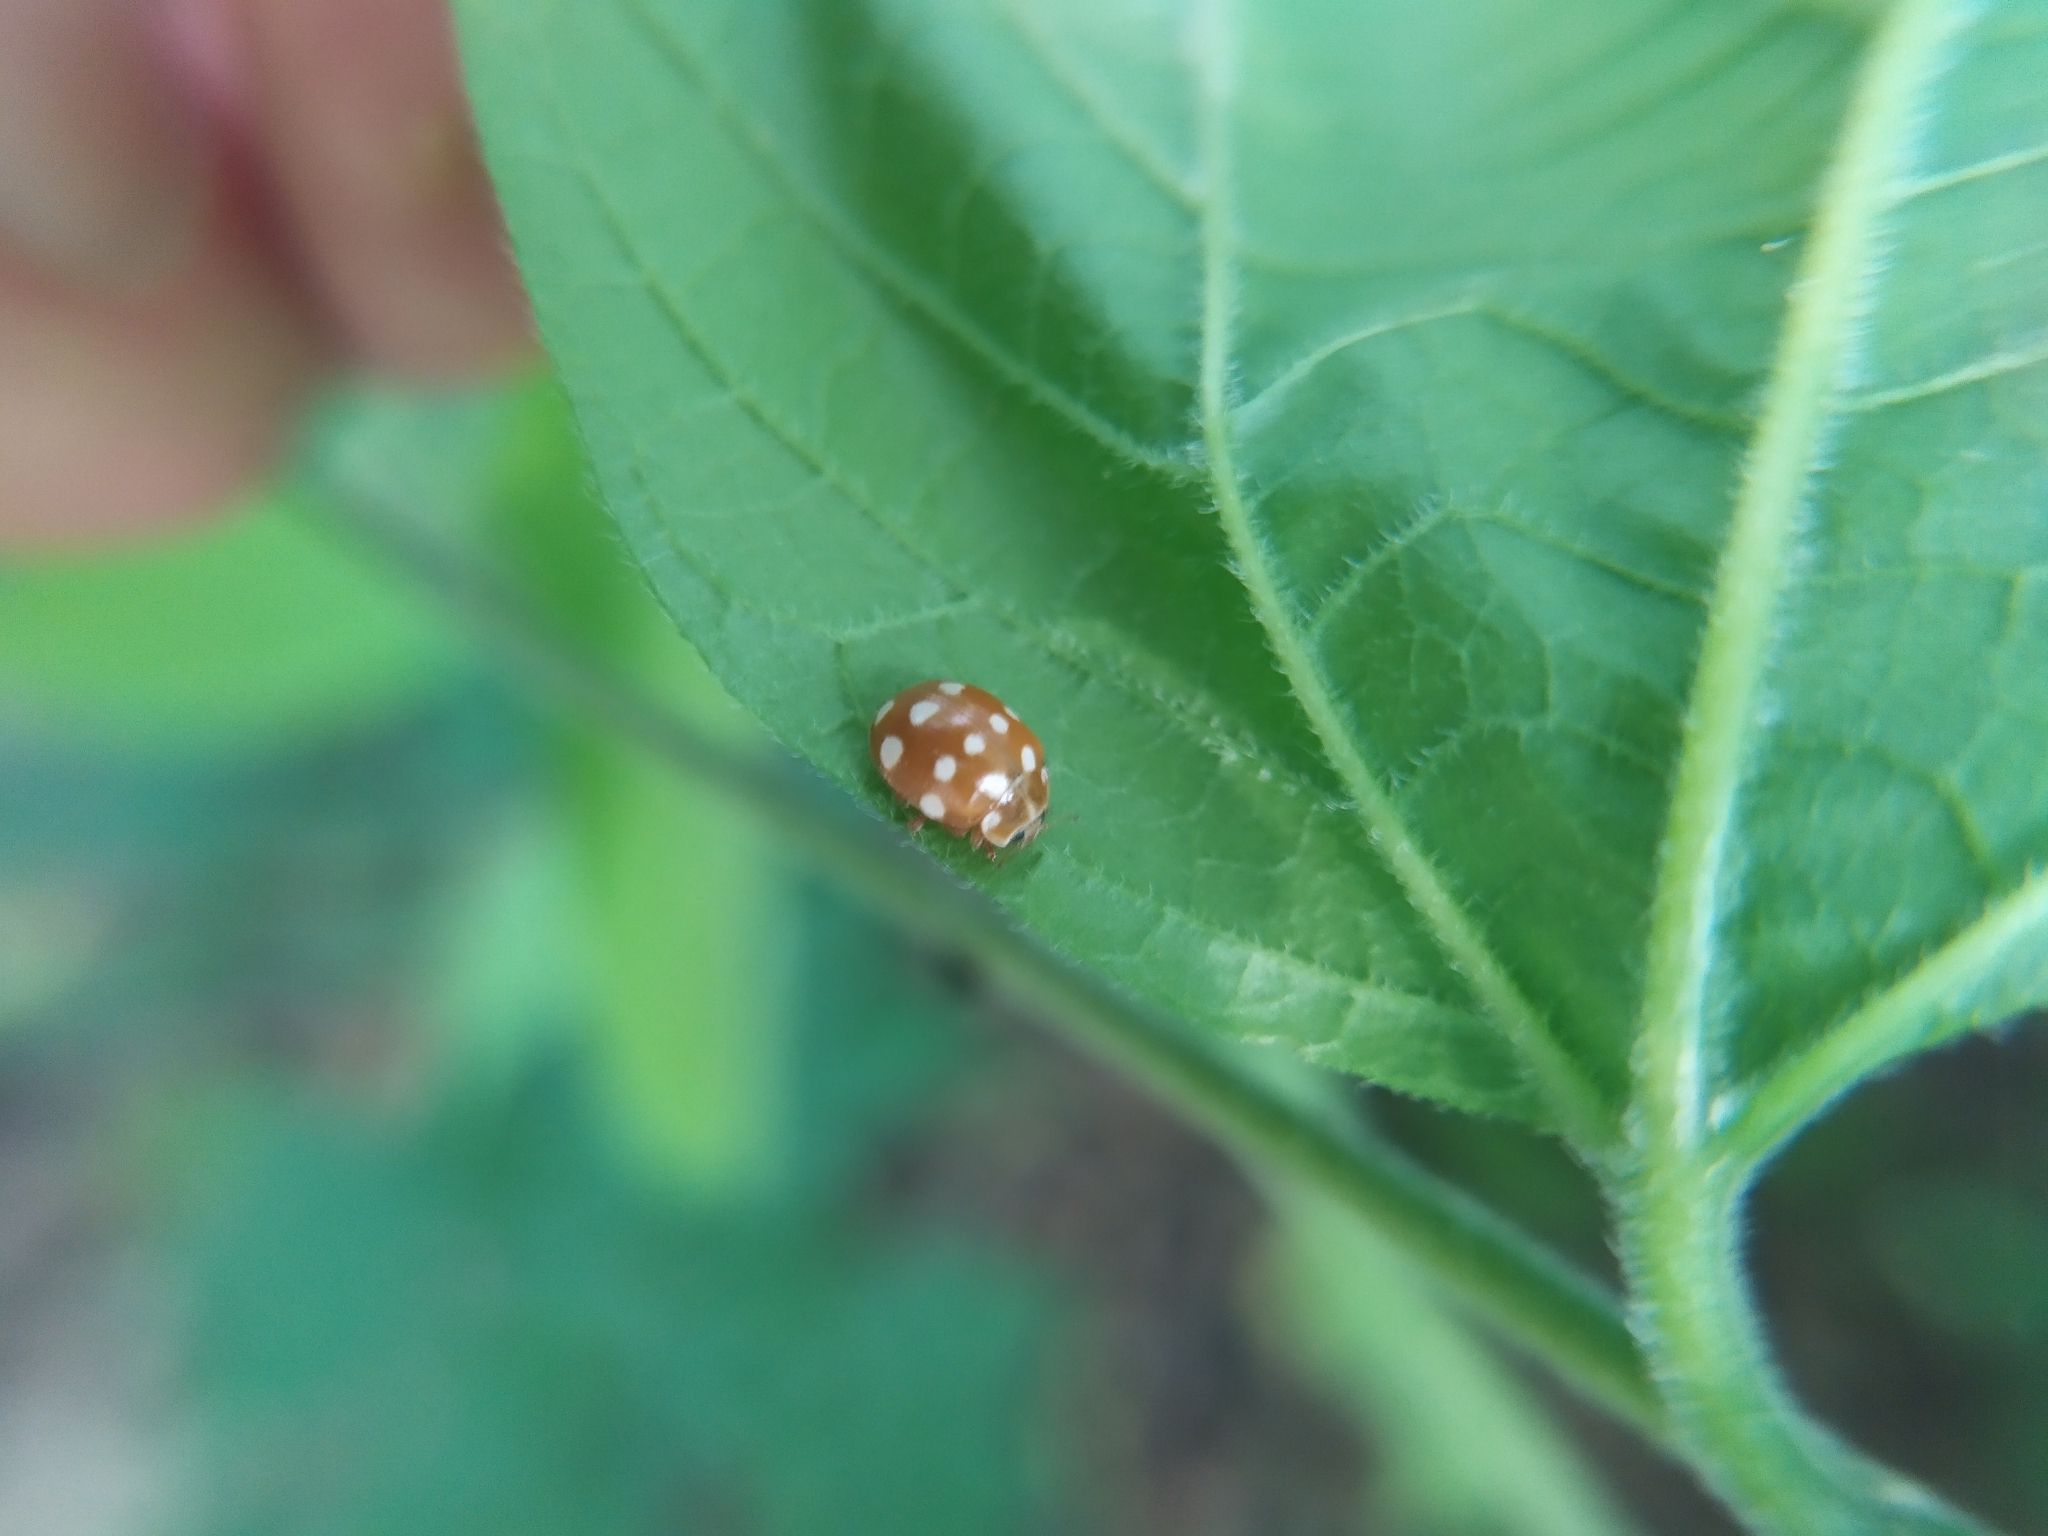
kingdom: Animalia
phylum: Arthropoda
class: Insecta
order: Coleoptera
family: Coccinellidae
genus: Calvia
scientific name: Calvia quatuordecimguttata
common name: Cream-spot ladybird
